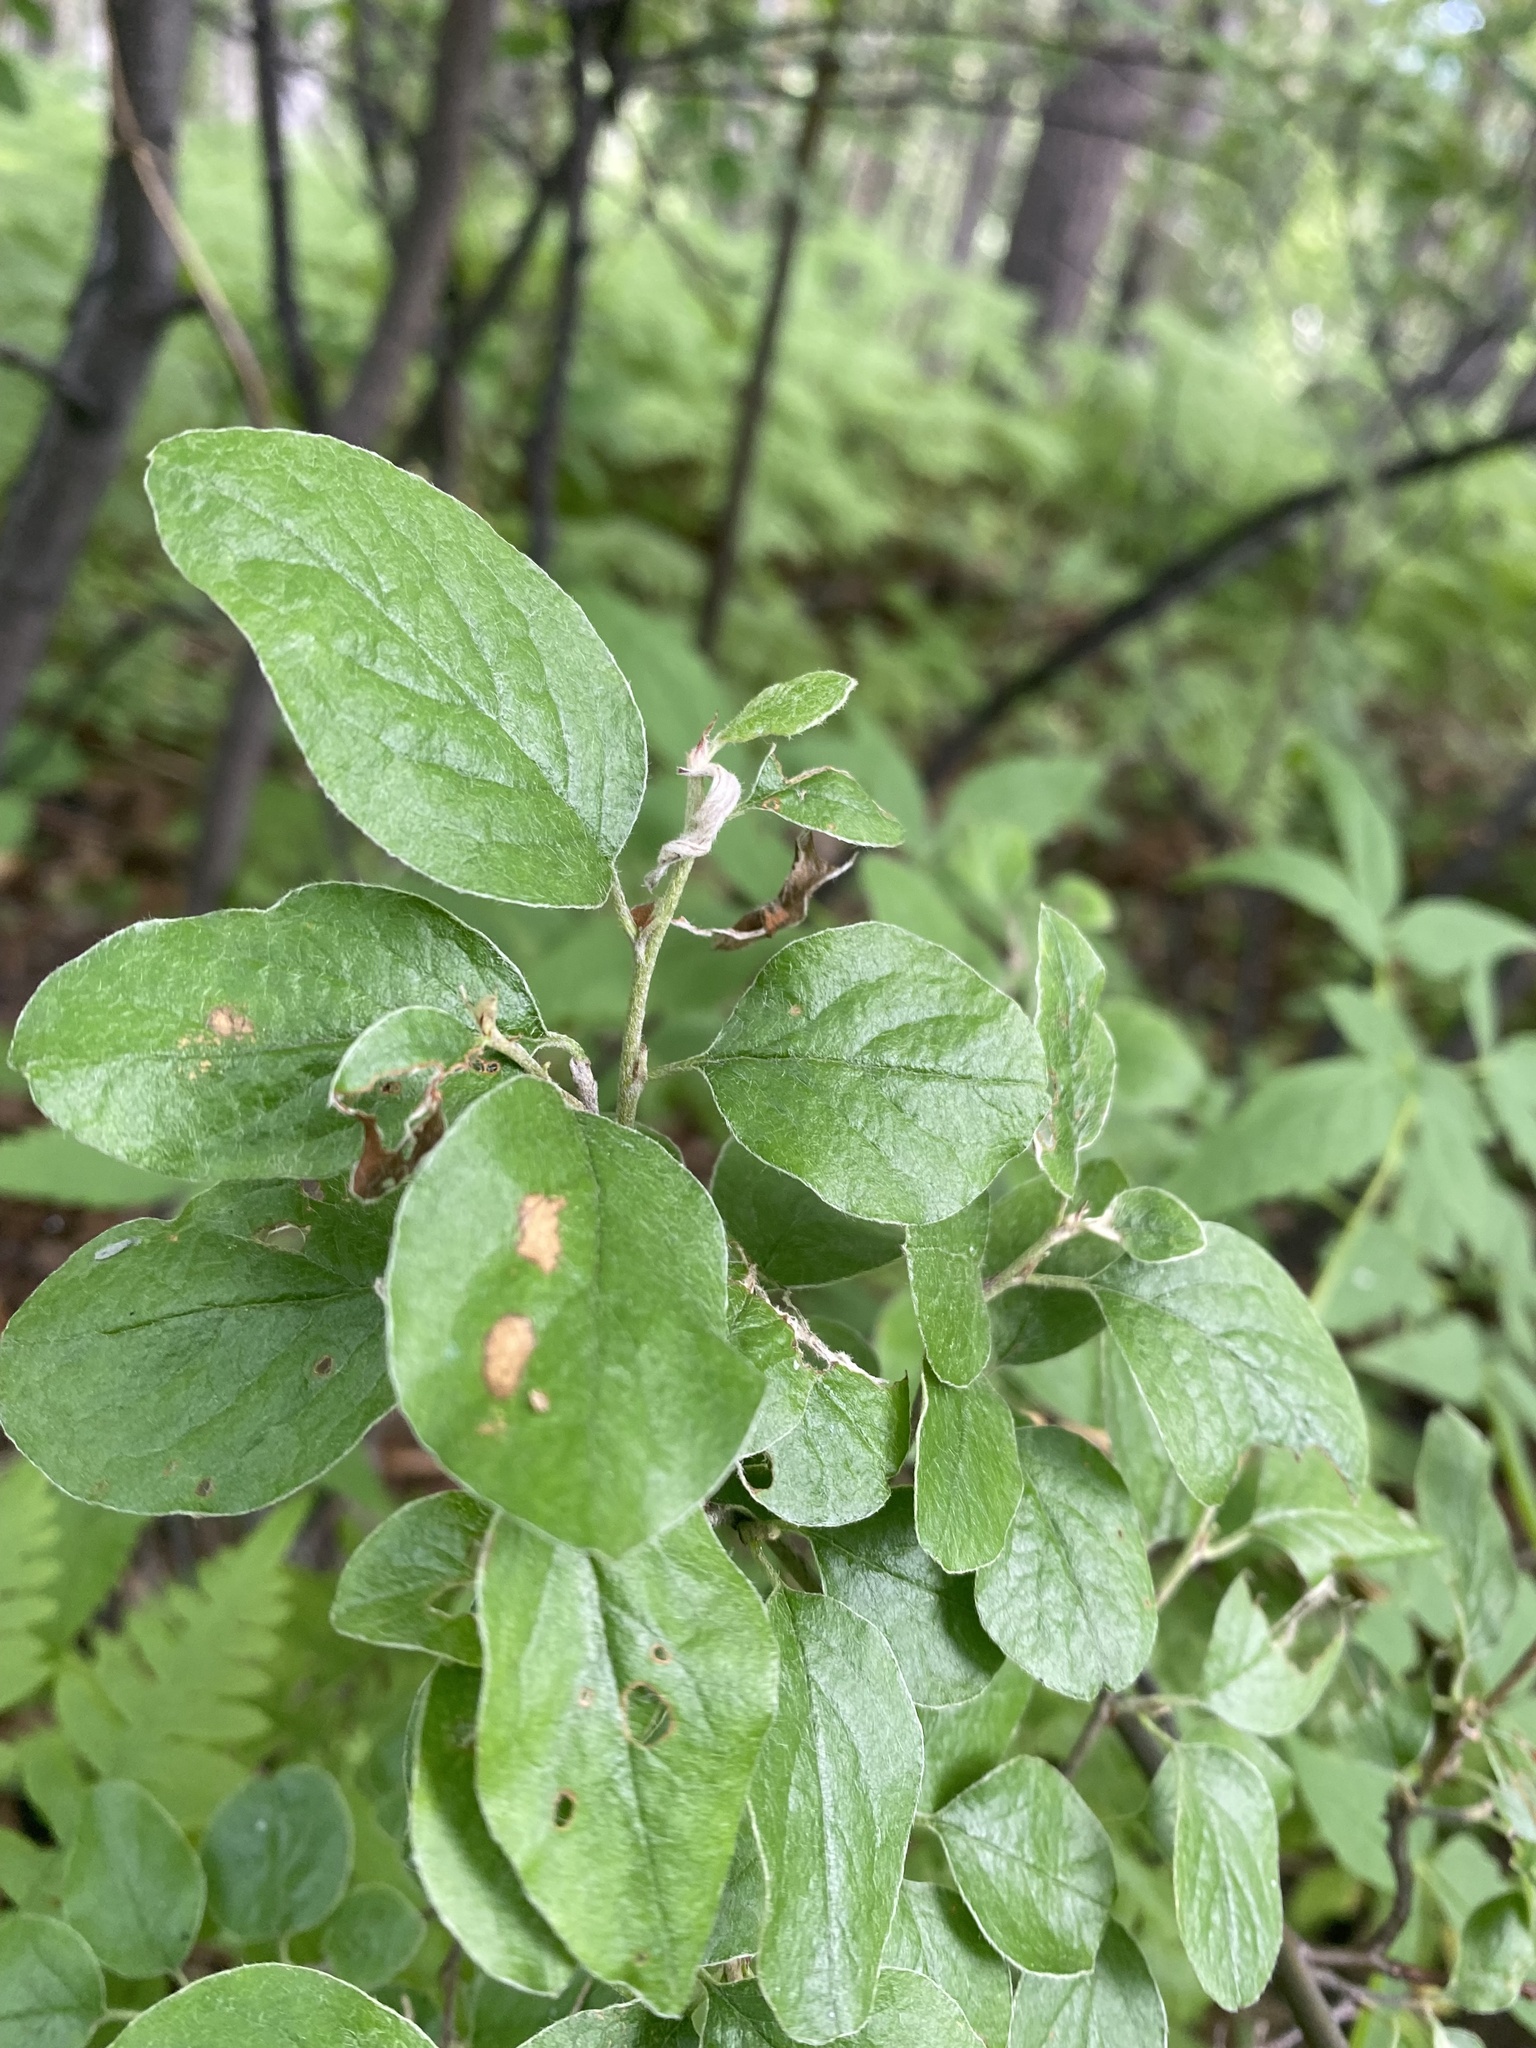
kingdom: Plantae
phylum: Tracheophyta
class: Magnoliopsida
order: Rosales
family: Rosaceae
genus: Cotoneaster
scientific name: Cotoneaster melanocarpus
